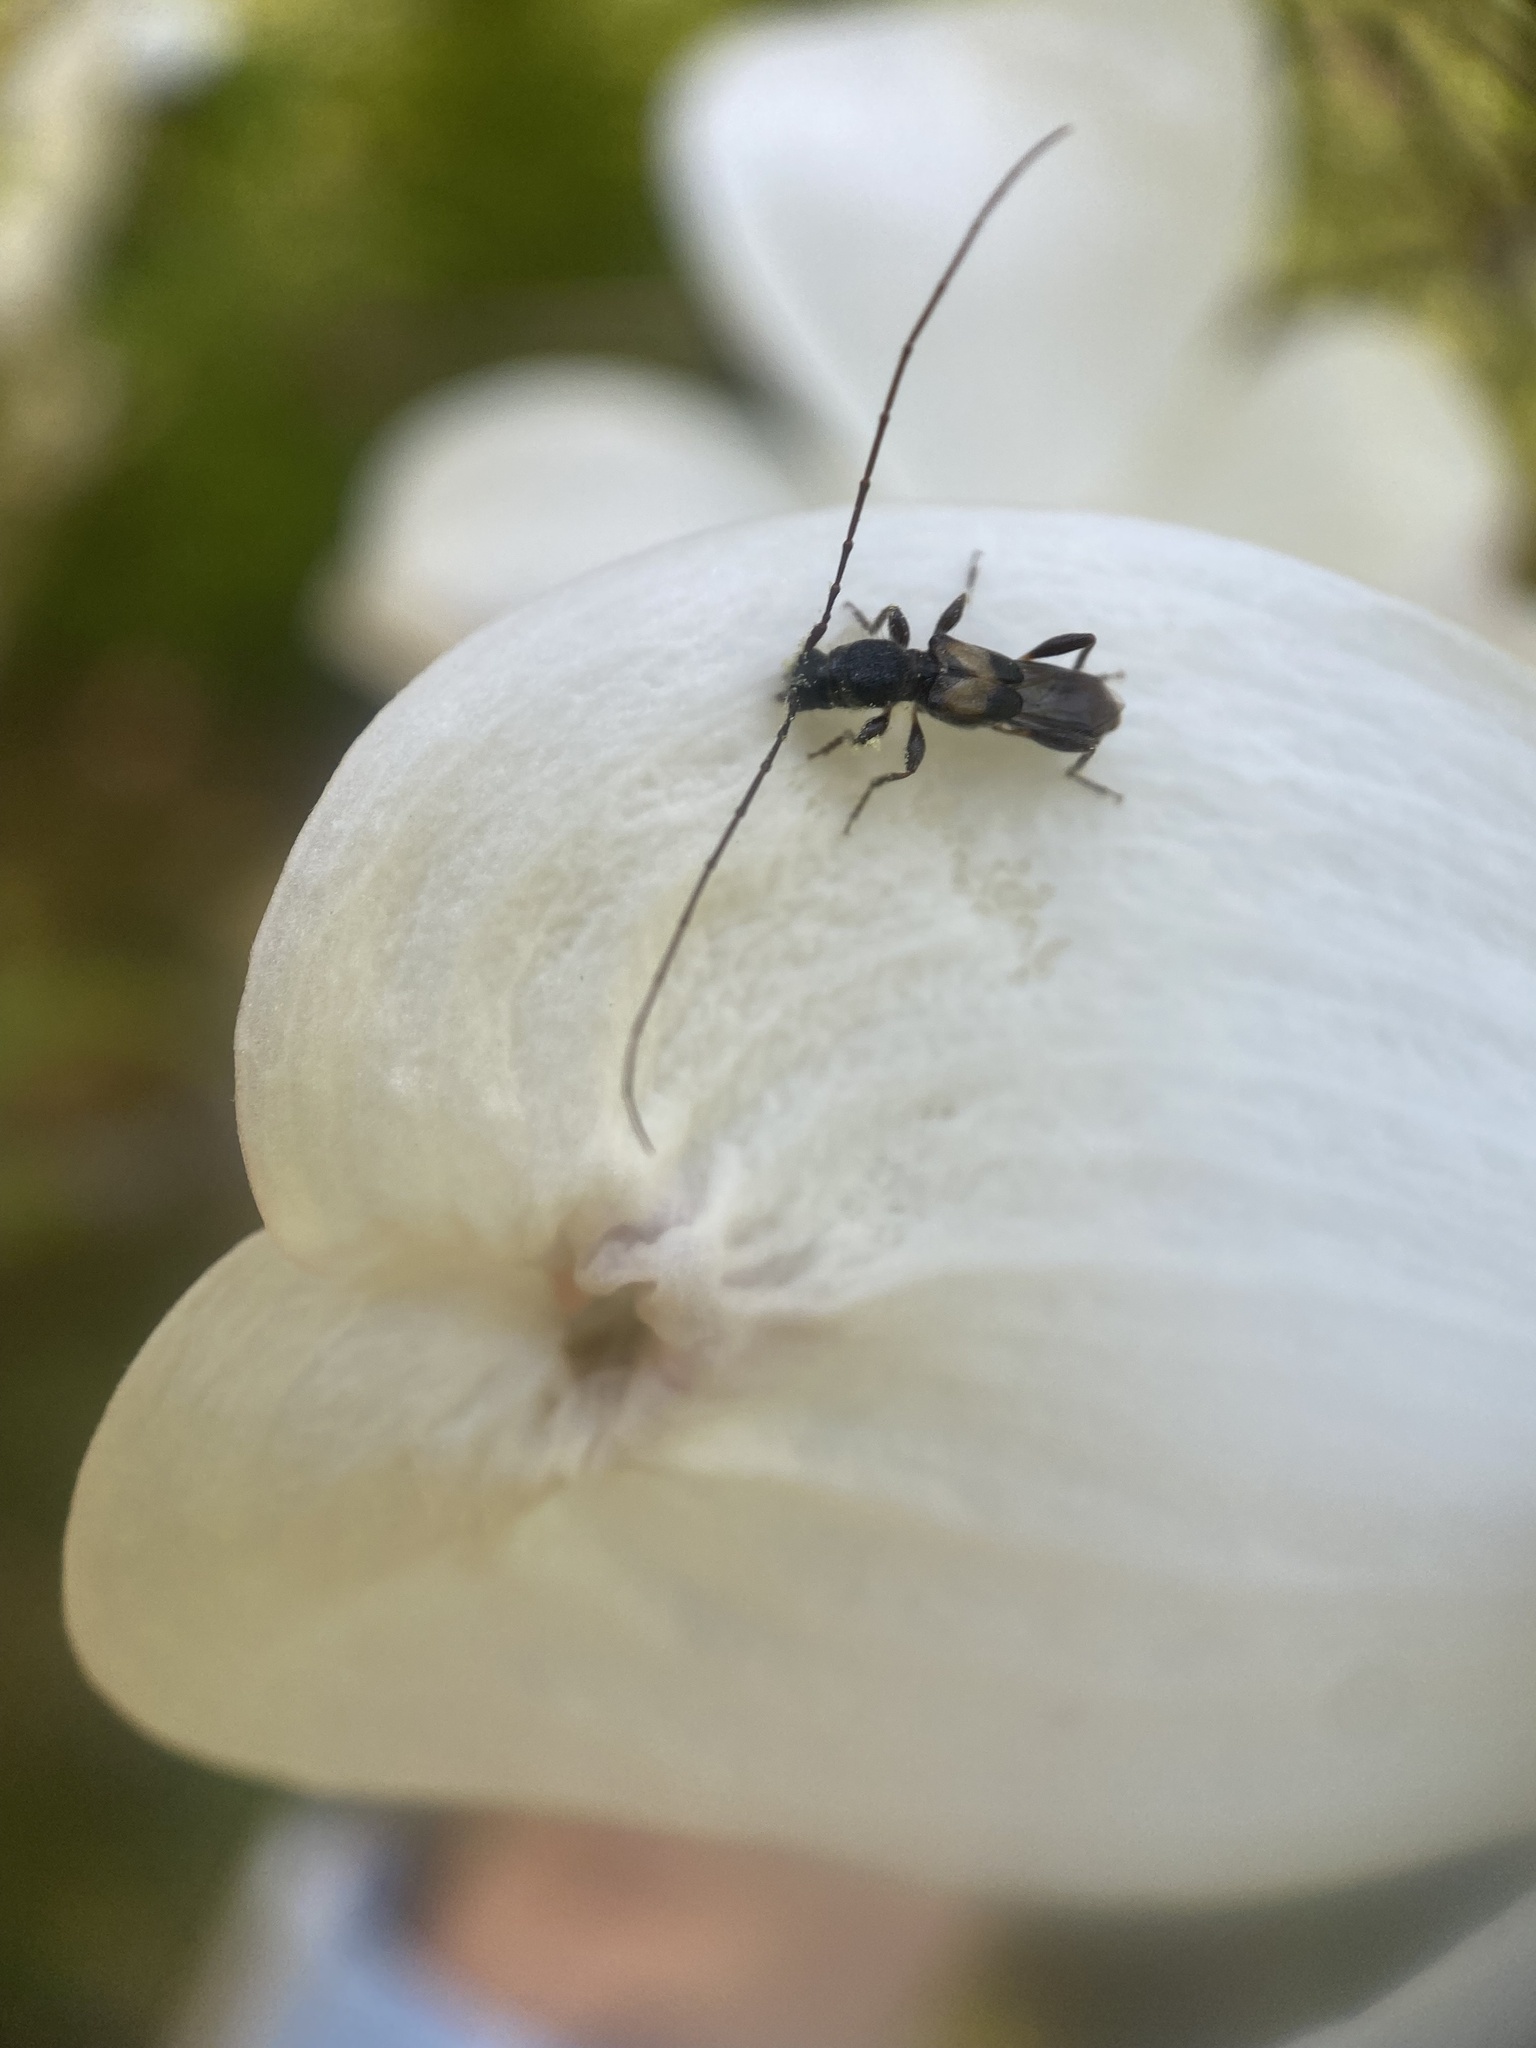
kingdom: Animalia
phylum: Arthropoda
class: Insecta
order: Coleoptera
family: Cerambycidae
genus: Molorchus
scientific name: Molorchus bimaculatus
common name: Bimaculate longhorn beetle
